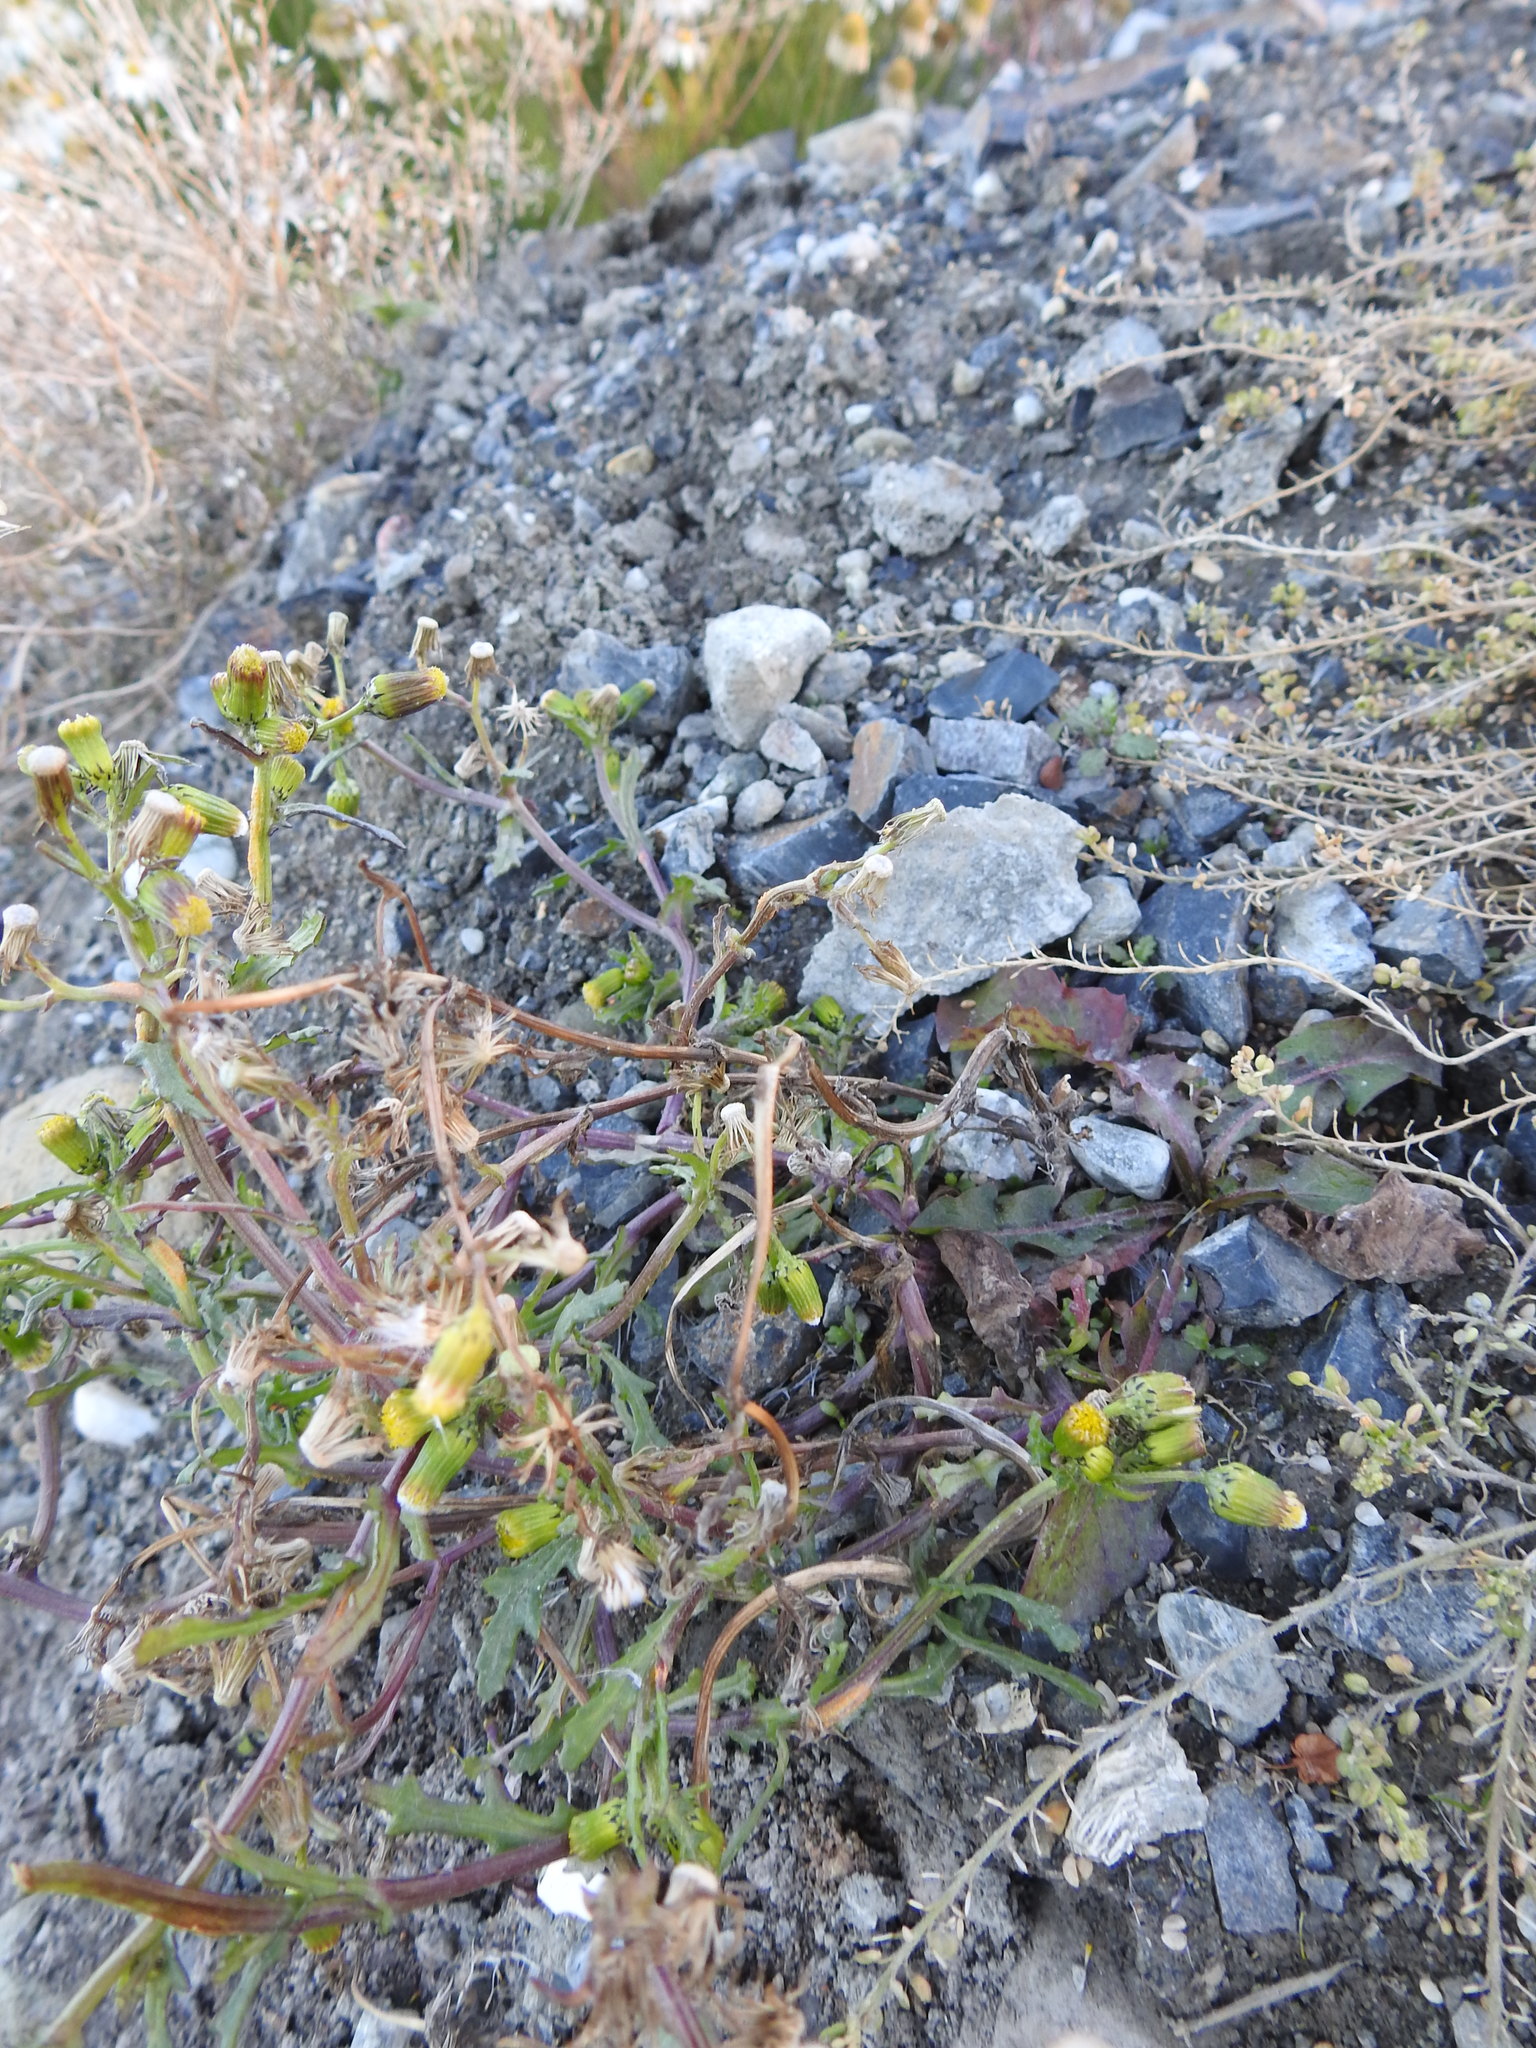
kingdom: Plantae
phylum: Tracheophyta
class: Magnoliopsida
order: Asterales
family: Asteraceae
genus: Senecio
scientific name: Senecio vulgaris
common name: Old-man-in-the-spring
